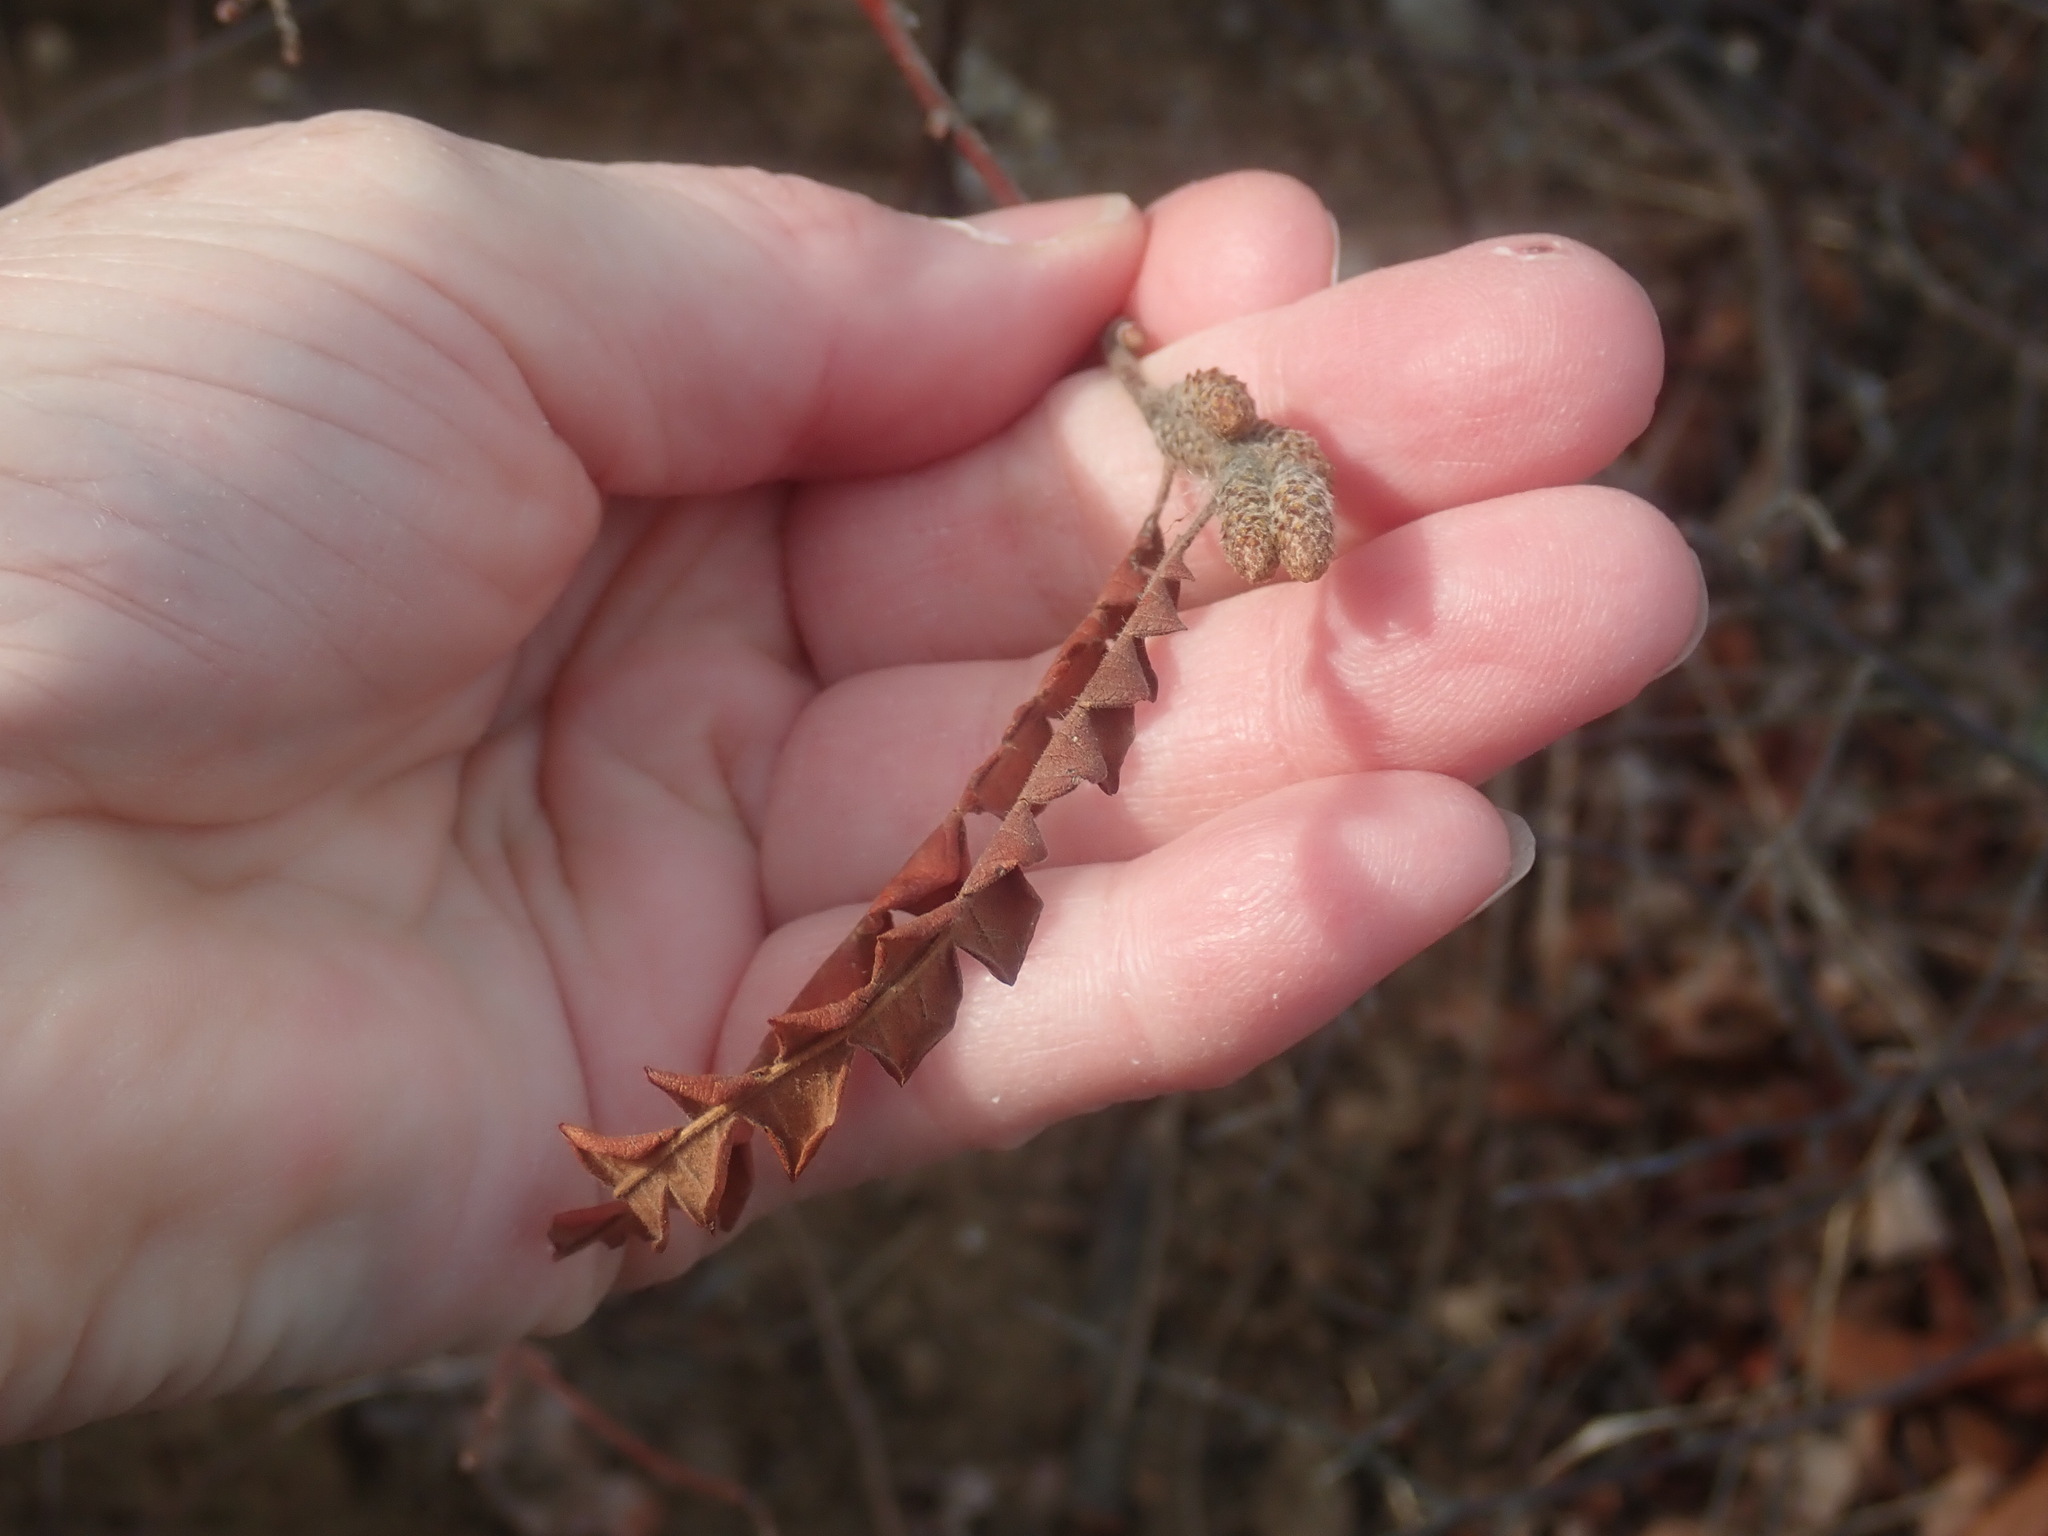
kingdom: Plantae
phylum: Tracheophyta
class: Magnoliopsida
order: Fagales
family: Myricaceae
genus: Comptonia
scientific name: Comptonia peregrina
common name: Sweet-fern
